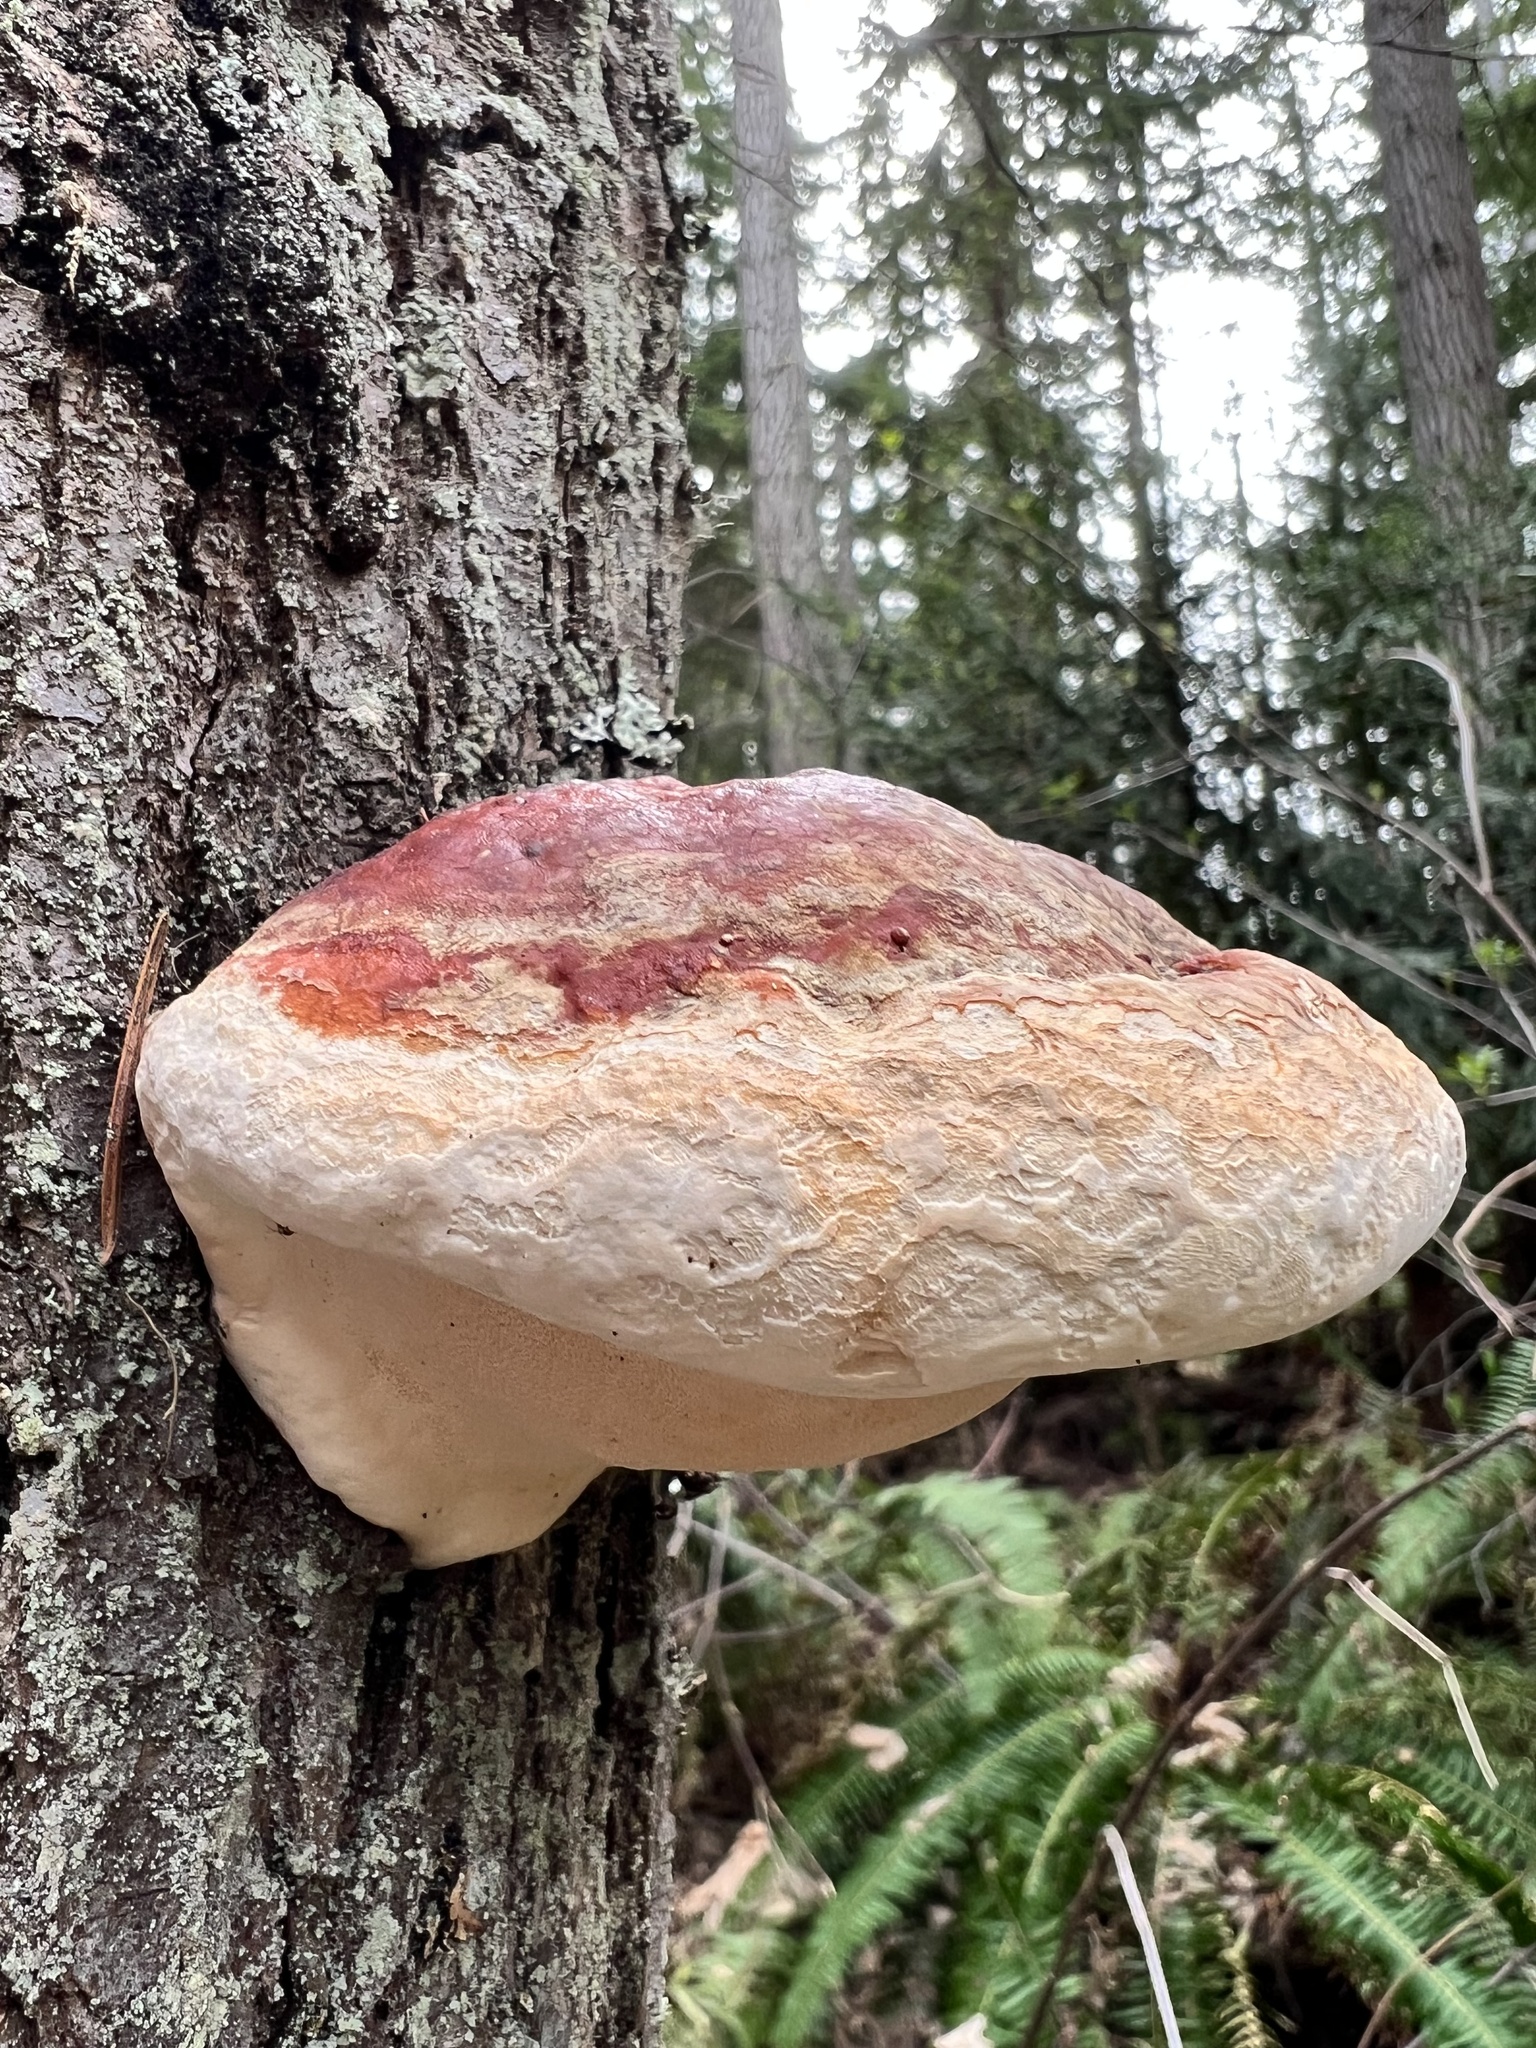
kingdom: Fungi
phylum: Basidiomycota
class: Agaricomycetes
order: Polyporales
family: Fomitopsidaceae
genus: Fomitopsis
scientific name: Fomitopsis mounceae
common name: Northern red belt
